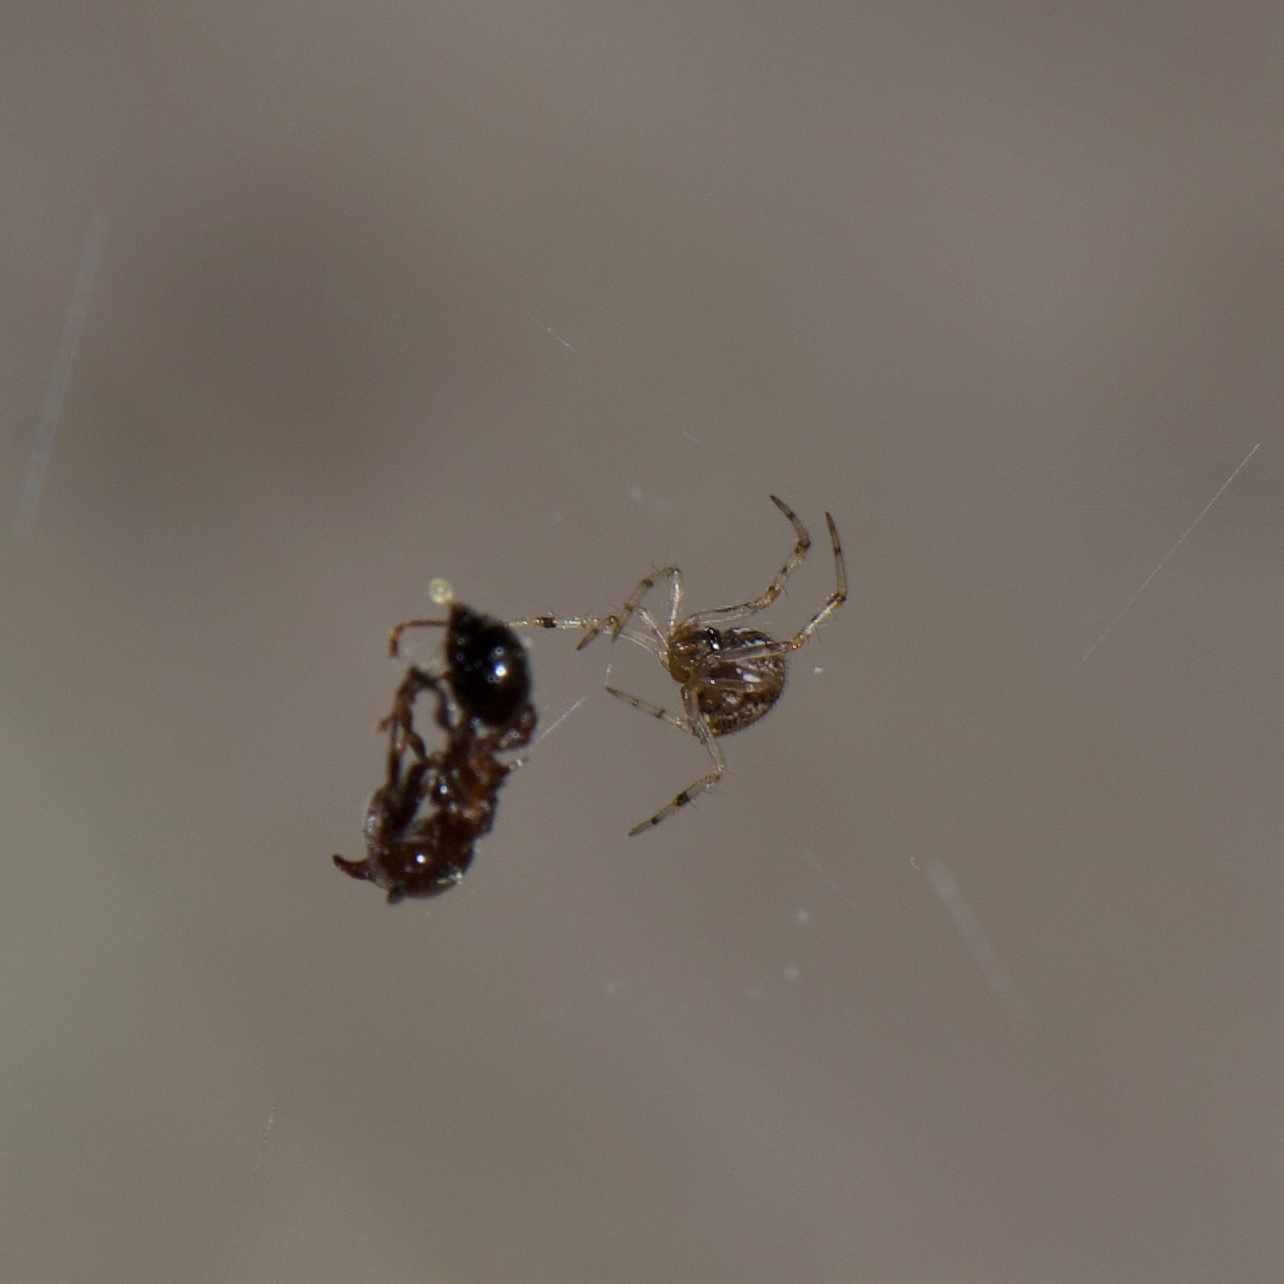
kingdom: Animalia
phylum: Arthropoda
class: Arachnida
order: Araneae
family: Theridiidae
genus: Parasteatoda
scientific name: Parasteatoda tepidariorum
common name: Common house spider
